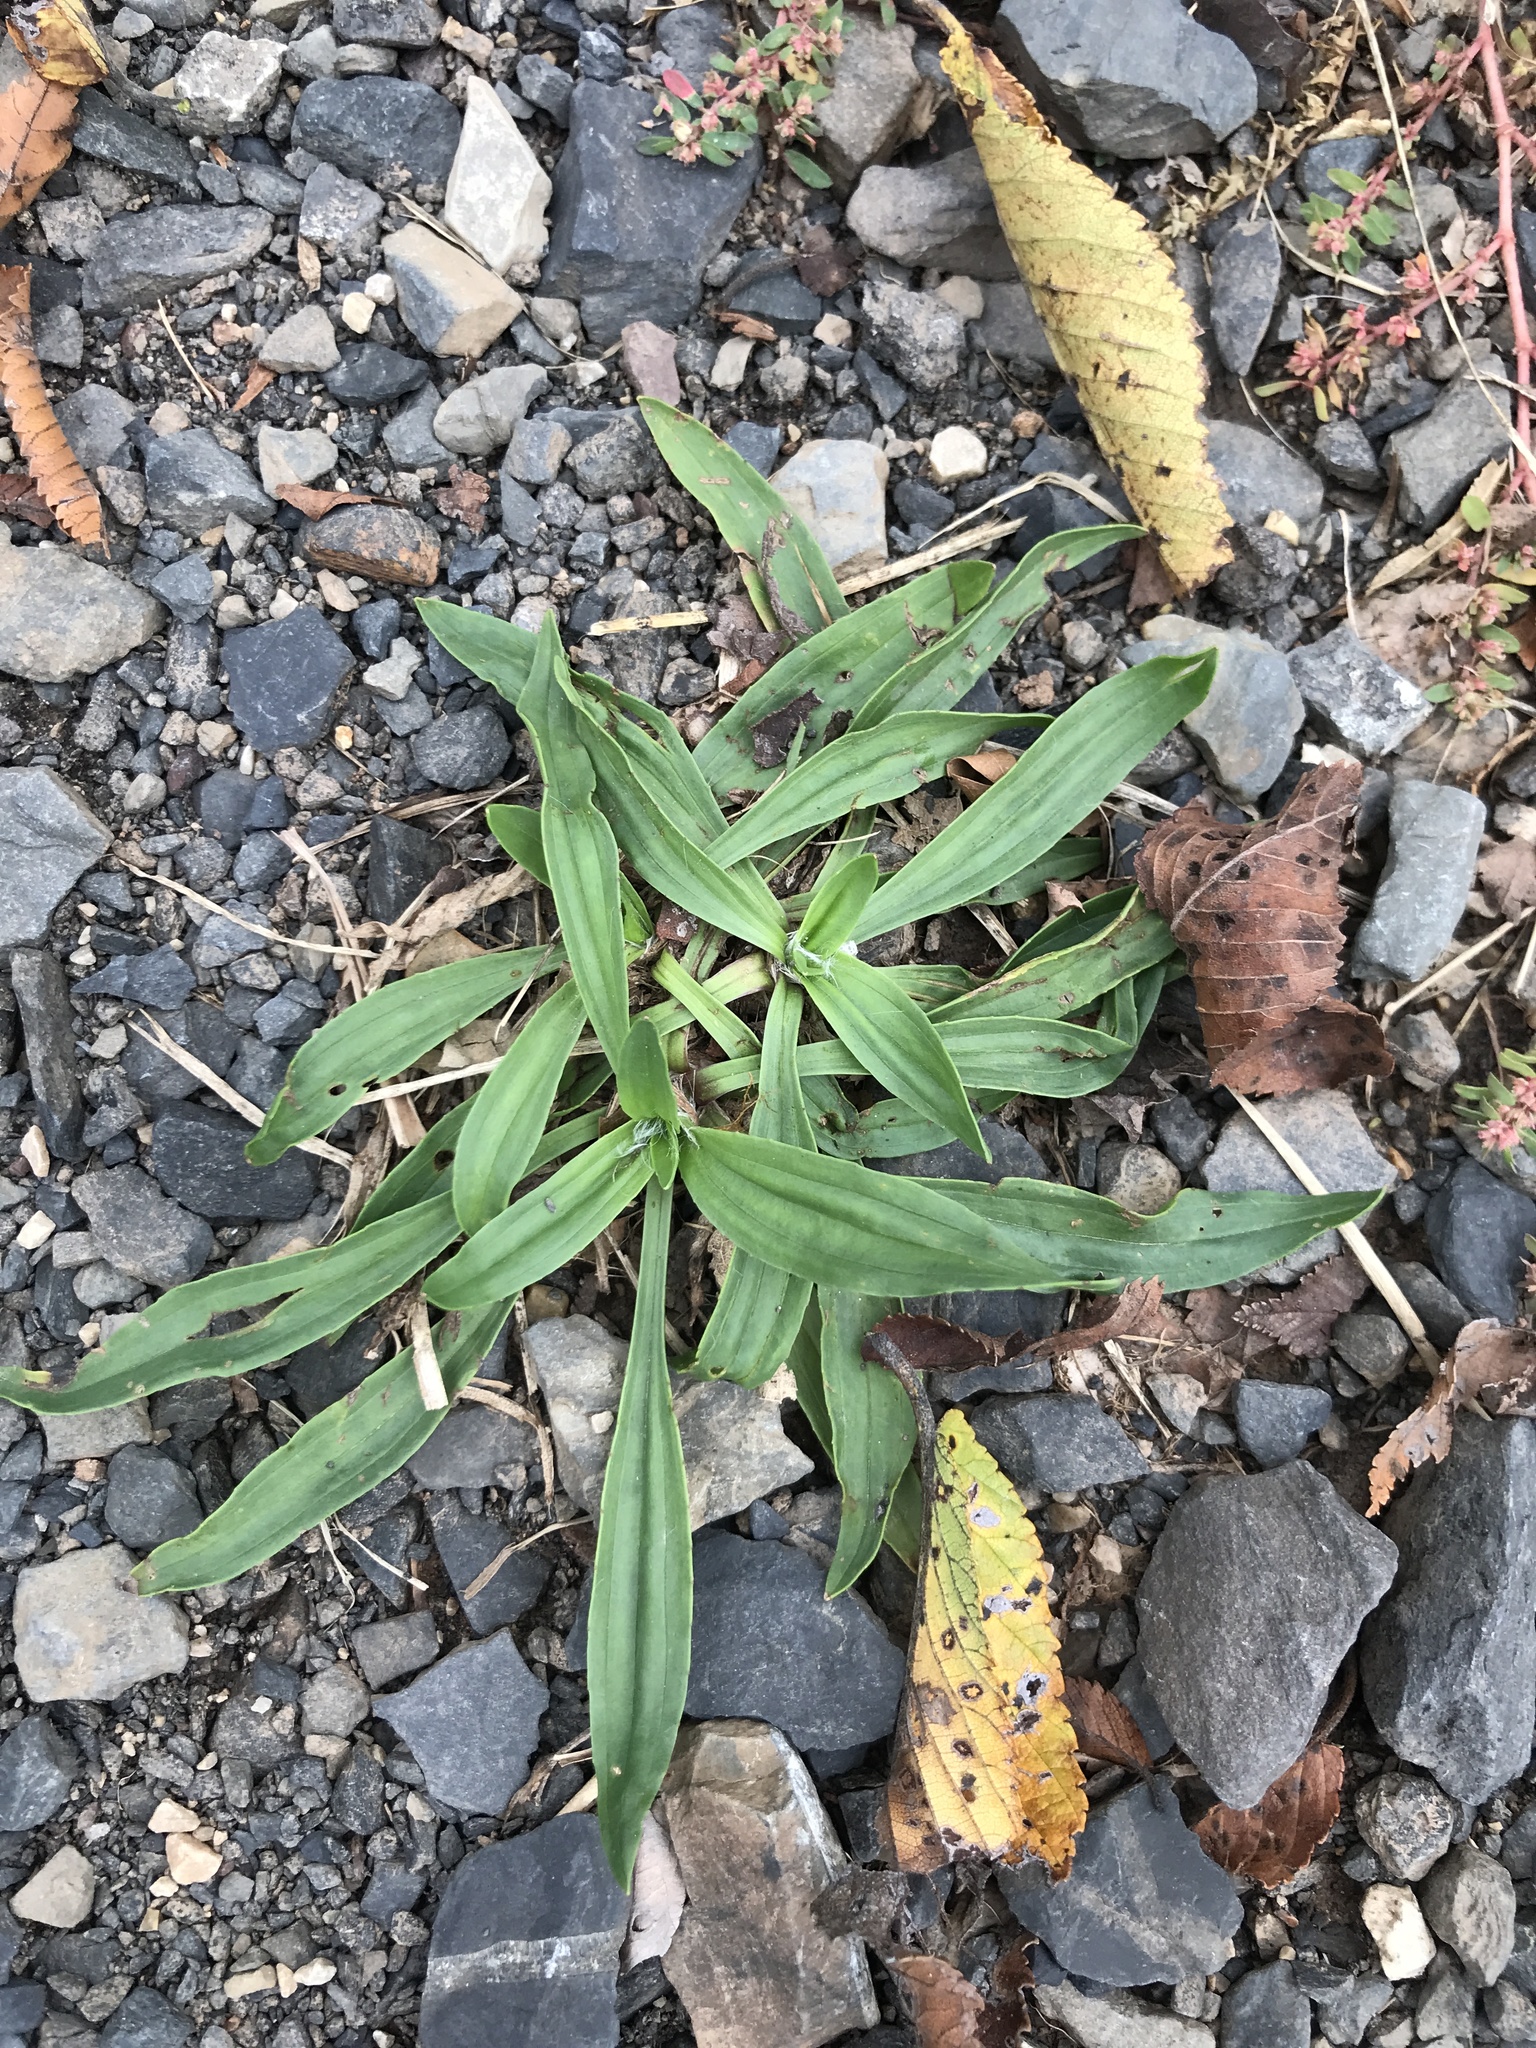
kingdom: Plantae
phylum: Tracheophyta
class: Magnoliopsida
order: Lamiales
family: Plantaginaceae
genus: Plantago
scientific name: Plantago lanceolata
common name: Ribwort plantain
